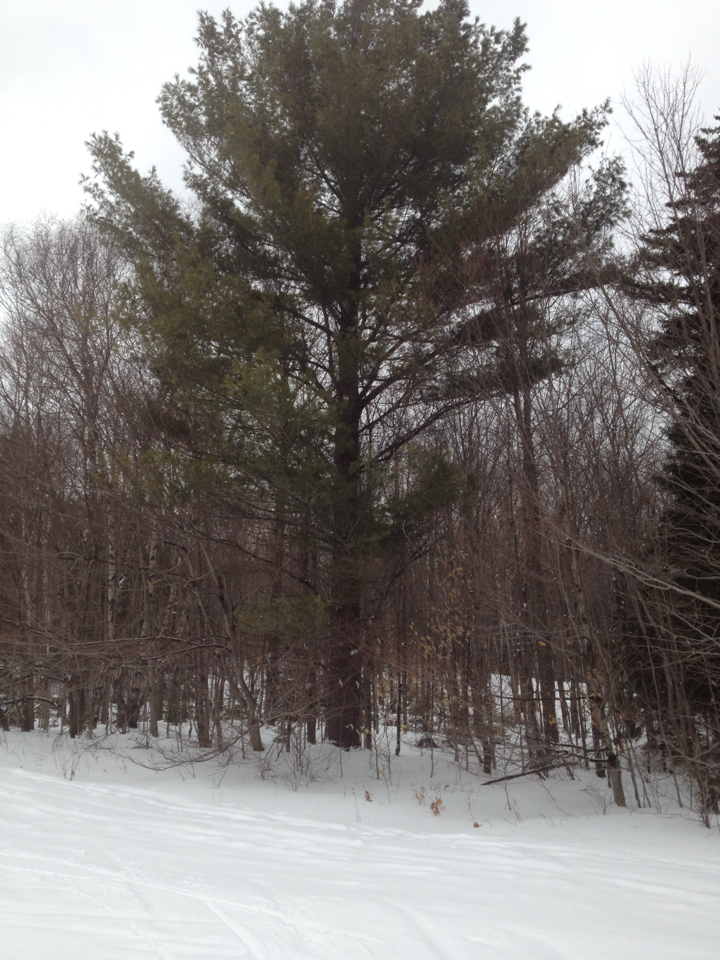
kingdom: Plantae
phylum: Tracheophyta
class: Pinopsida
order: Pinales
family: Pinaceae
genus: Pinus
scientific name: Pinus strobus
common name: Weymouth pine
